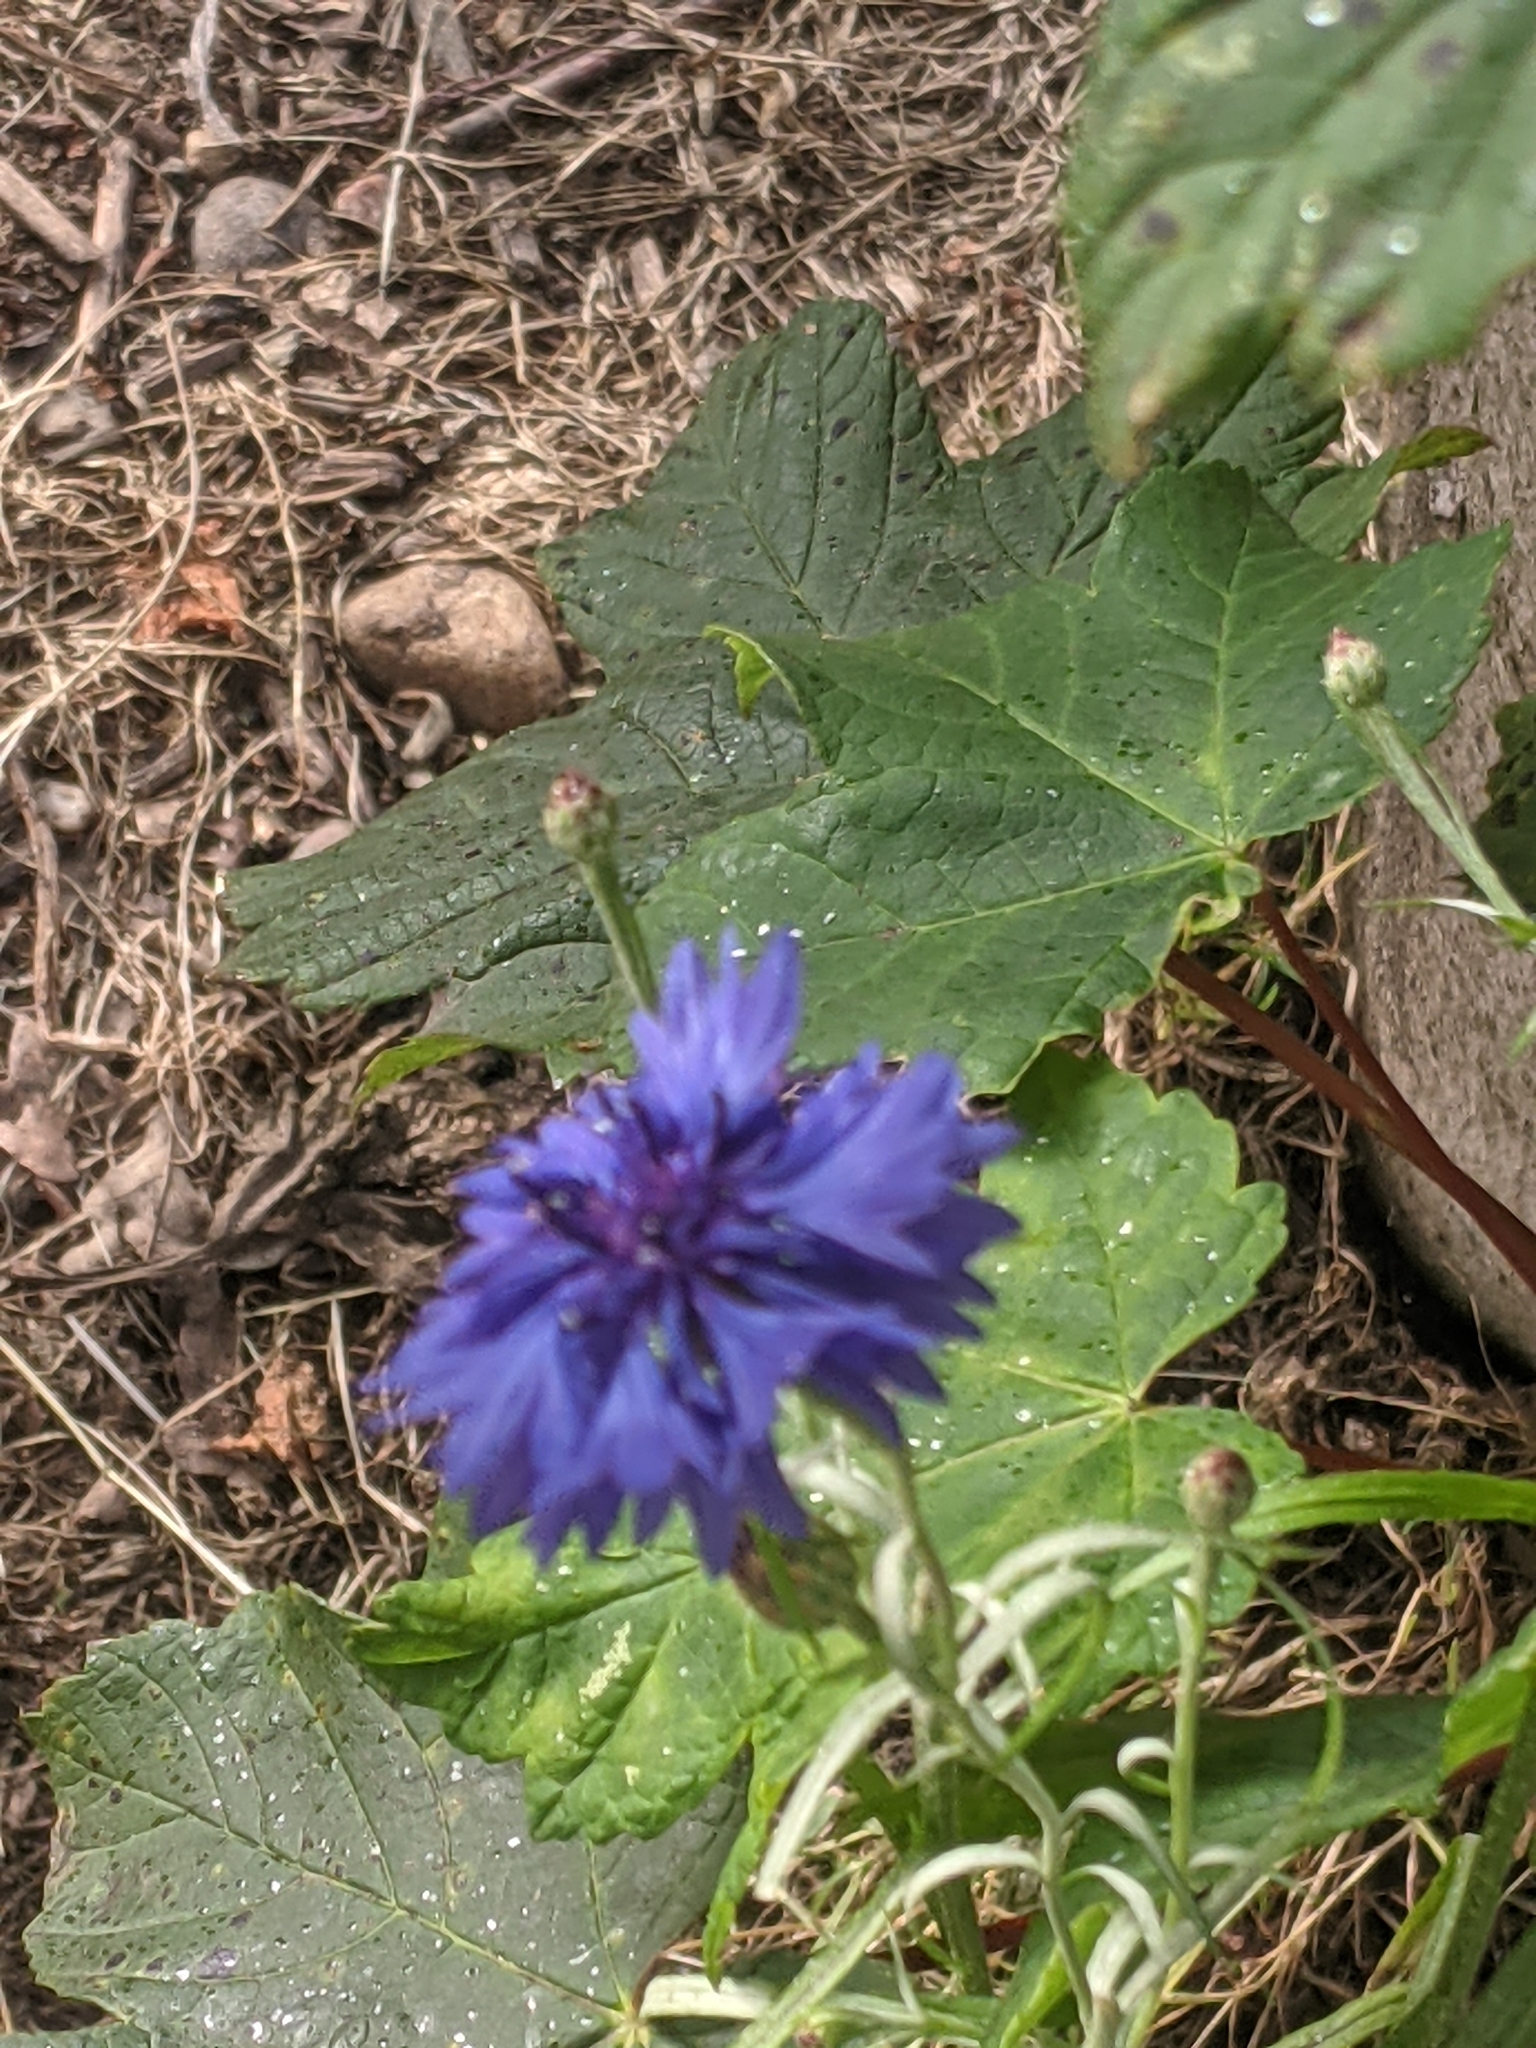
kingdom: Plantae
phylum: Tracheophyta
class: Magnoliopsida
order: Asterales
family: Asteraceae
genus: Centaurea
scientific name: Centaurea cyanus
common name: Cornflower
